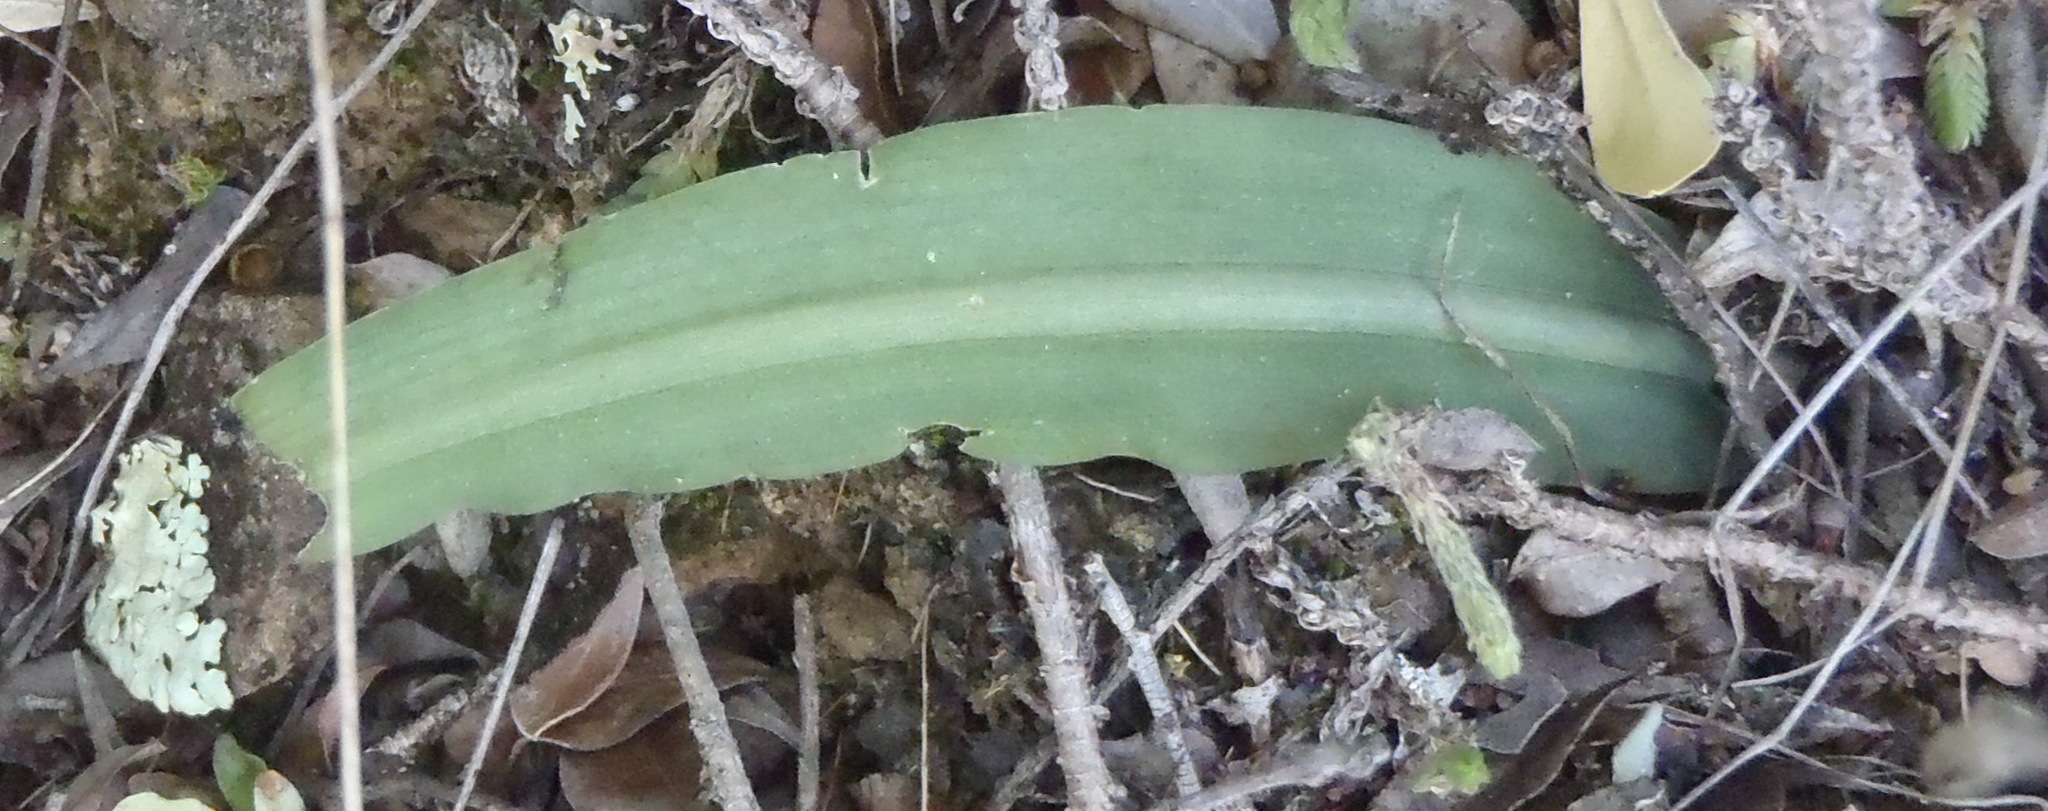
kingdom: Plantae
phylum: Tracheophyta
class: Liliopsida
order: Asparagales
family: Asparagaceae
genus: Drimia
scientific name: Drimia haworthioides
